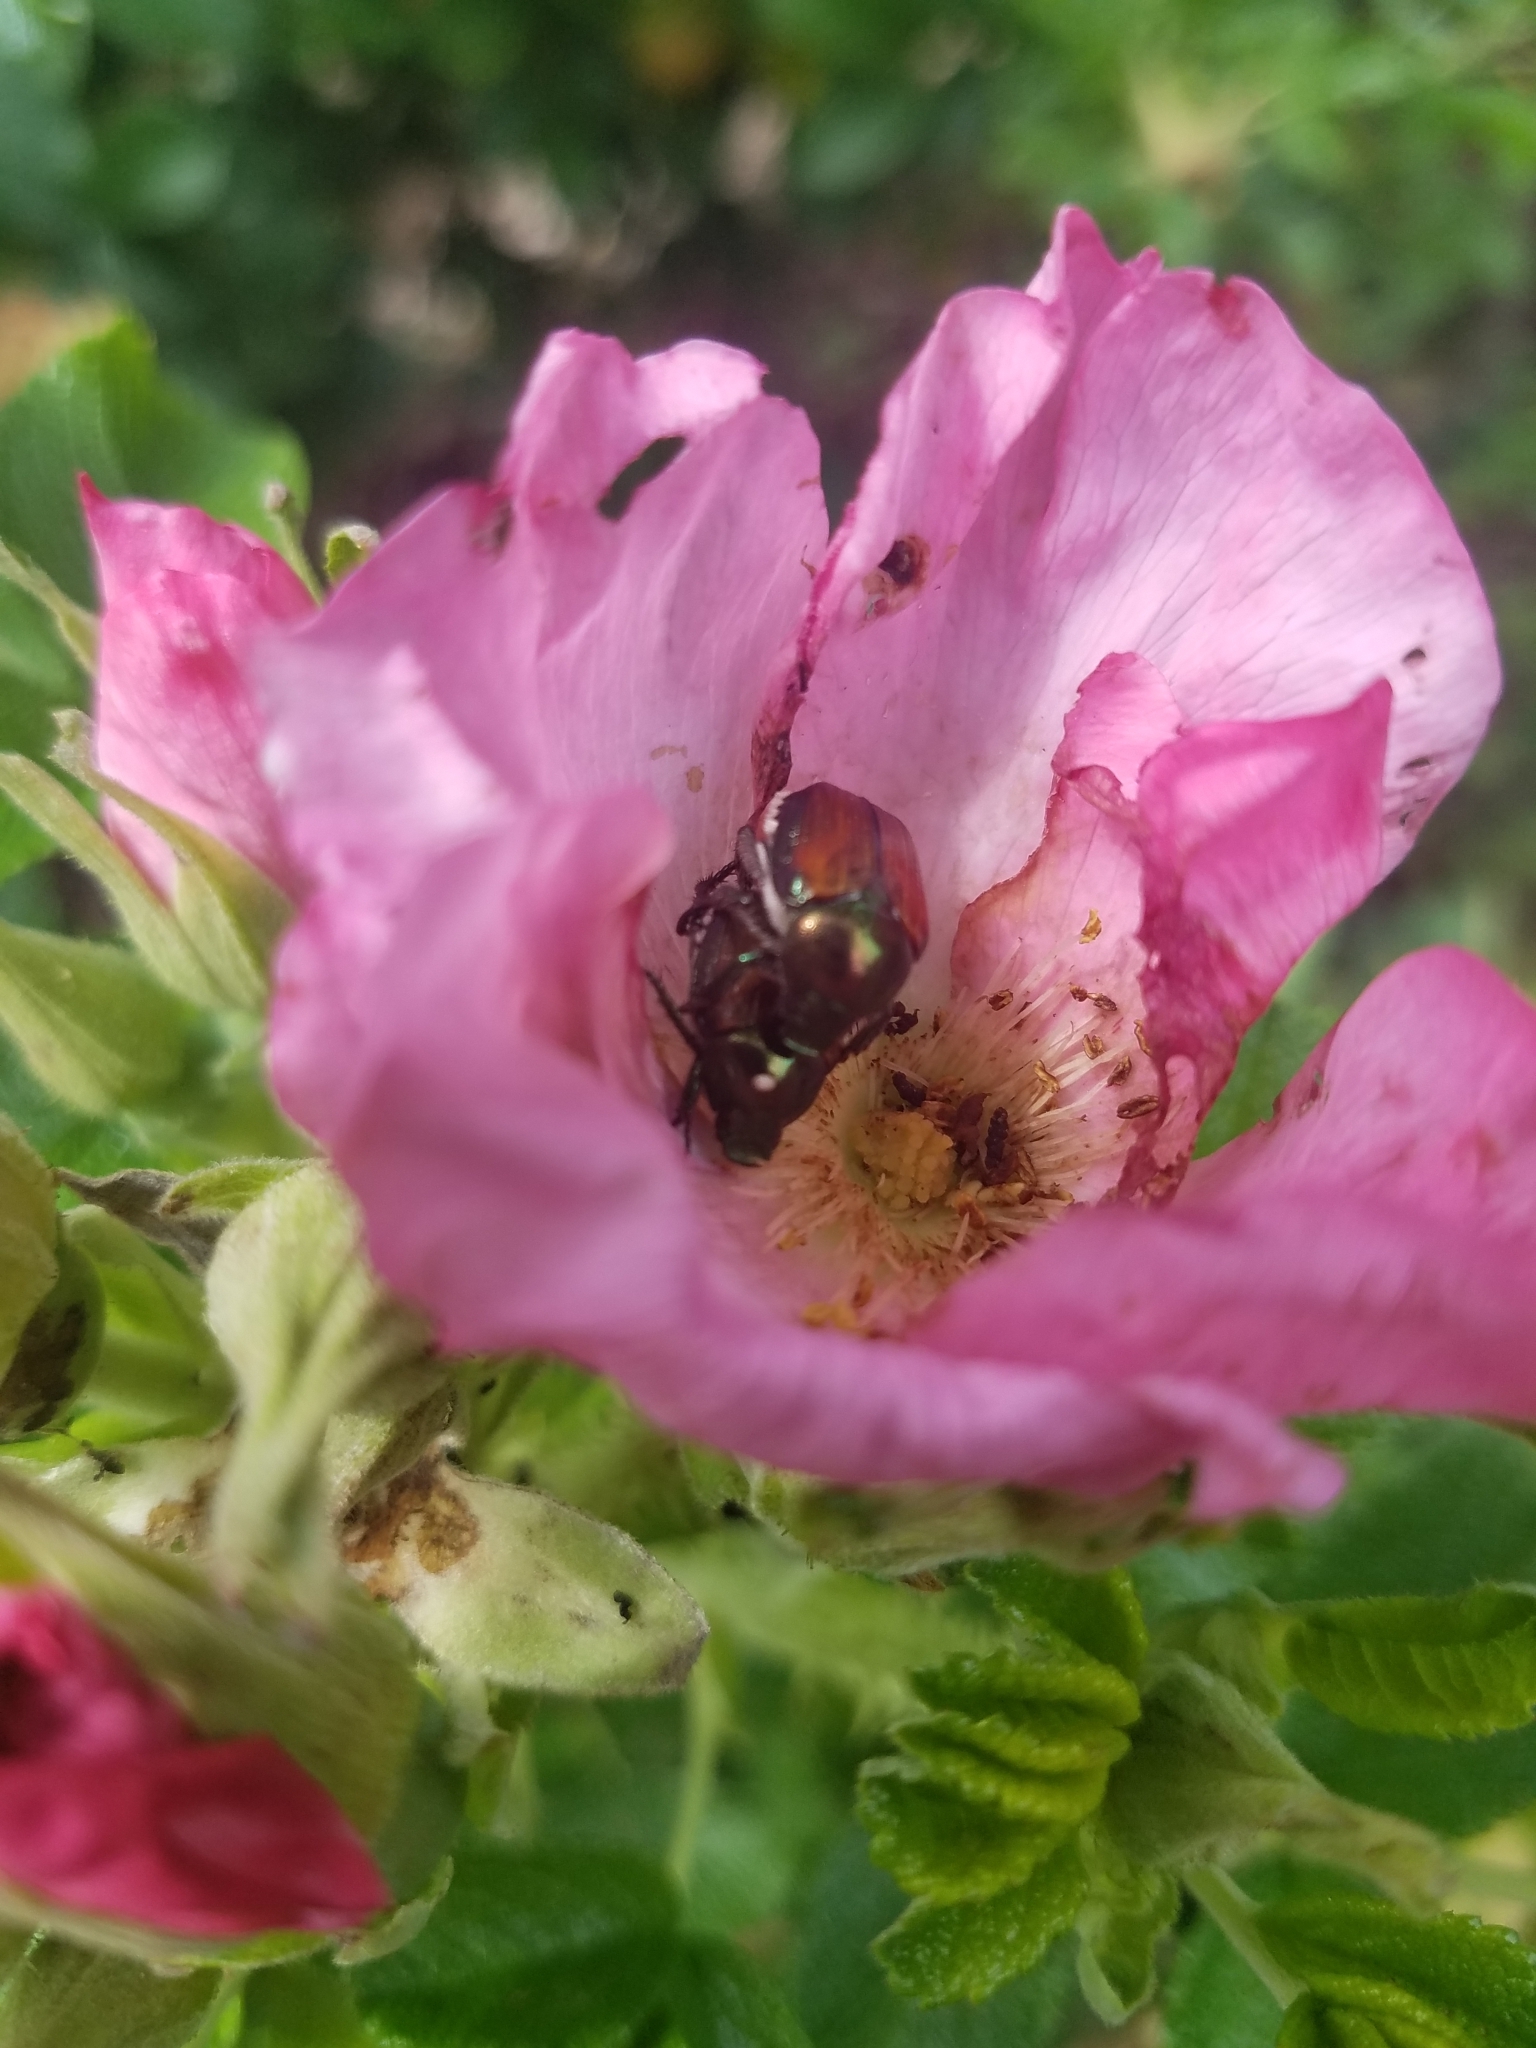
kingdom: Animalia
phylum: Arthropoda
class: Insecta
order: Coleoptera
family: Scarabaeidae
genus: Popillia
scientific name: Popillia japonica
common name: Japanese beetle
